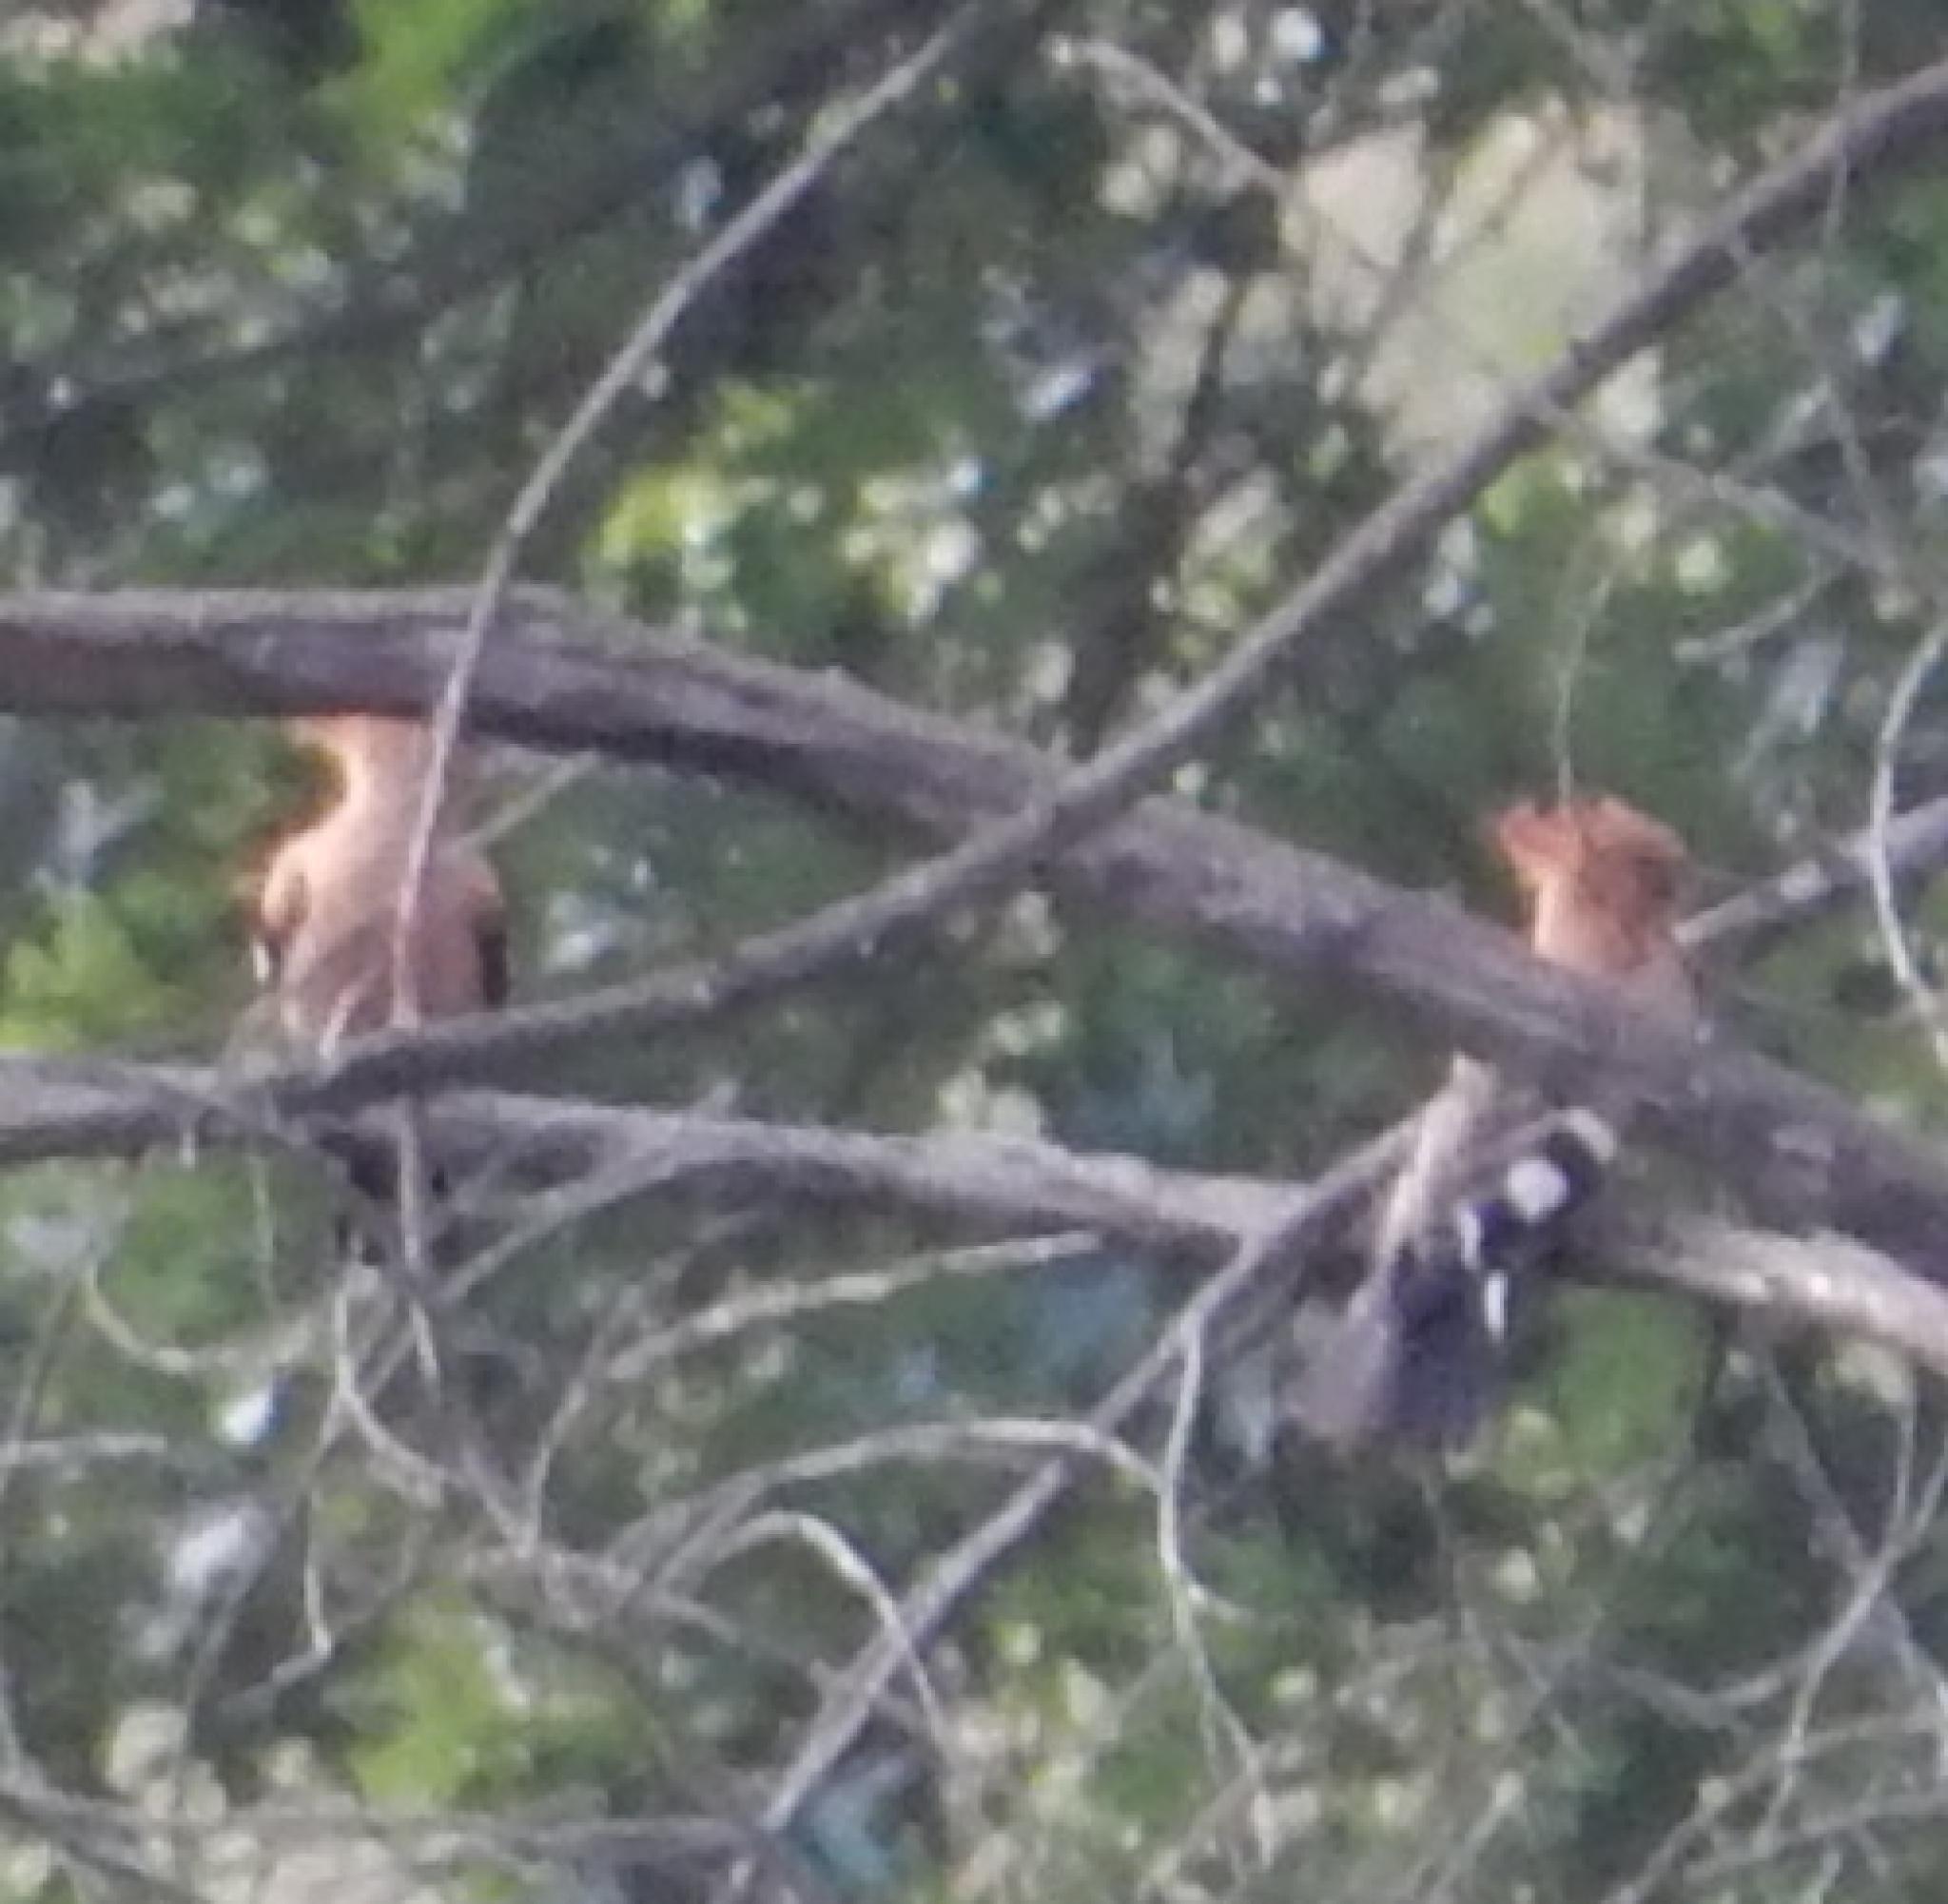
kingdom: Animalia
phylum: Chordata
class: Aves
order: Bucerotiformes
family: Upupidae
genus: Upupa
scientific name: Upupa africana
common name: African hoopoe
